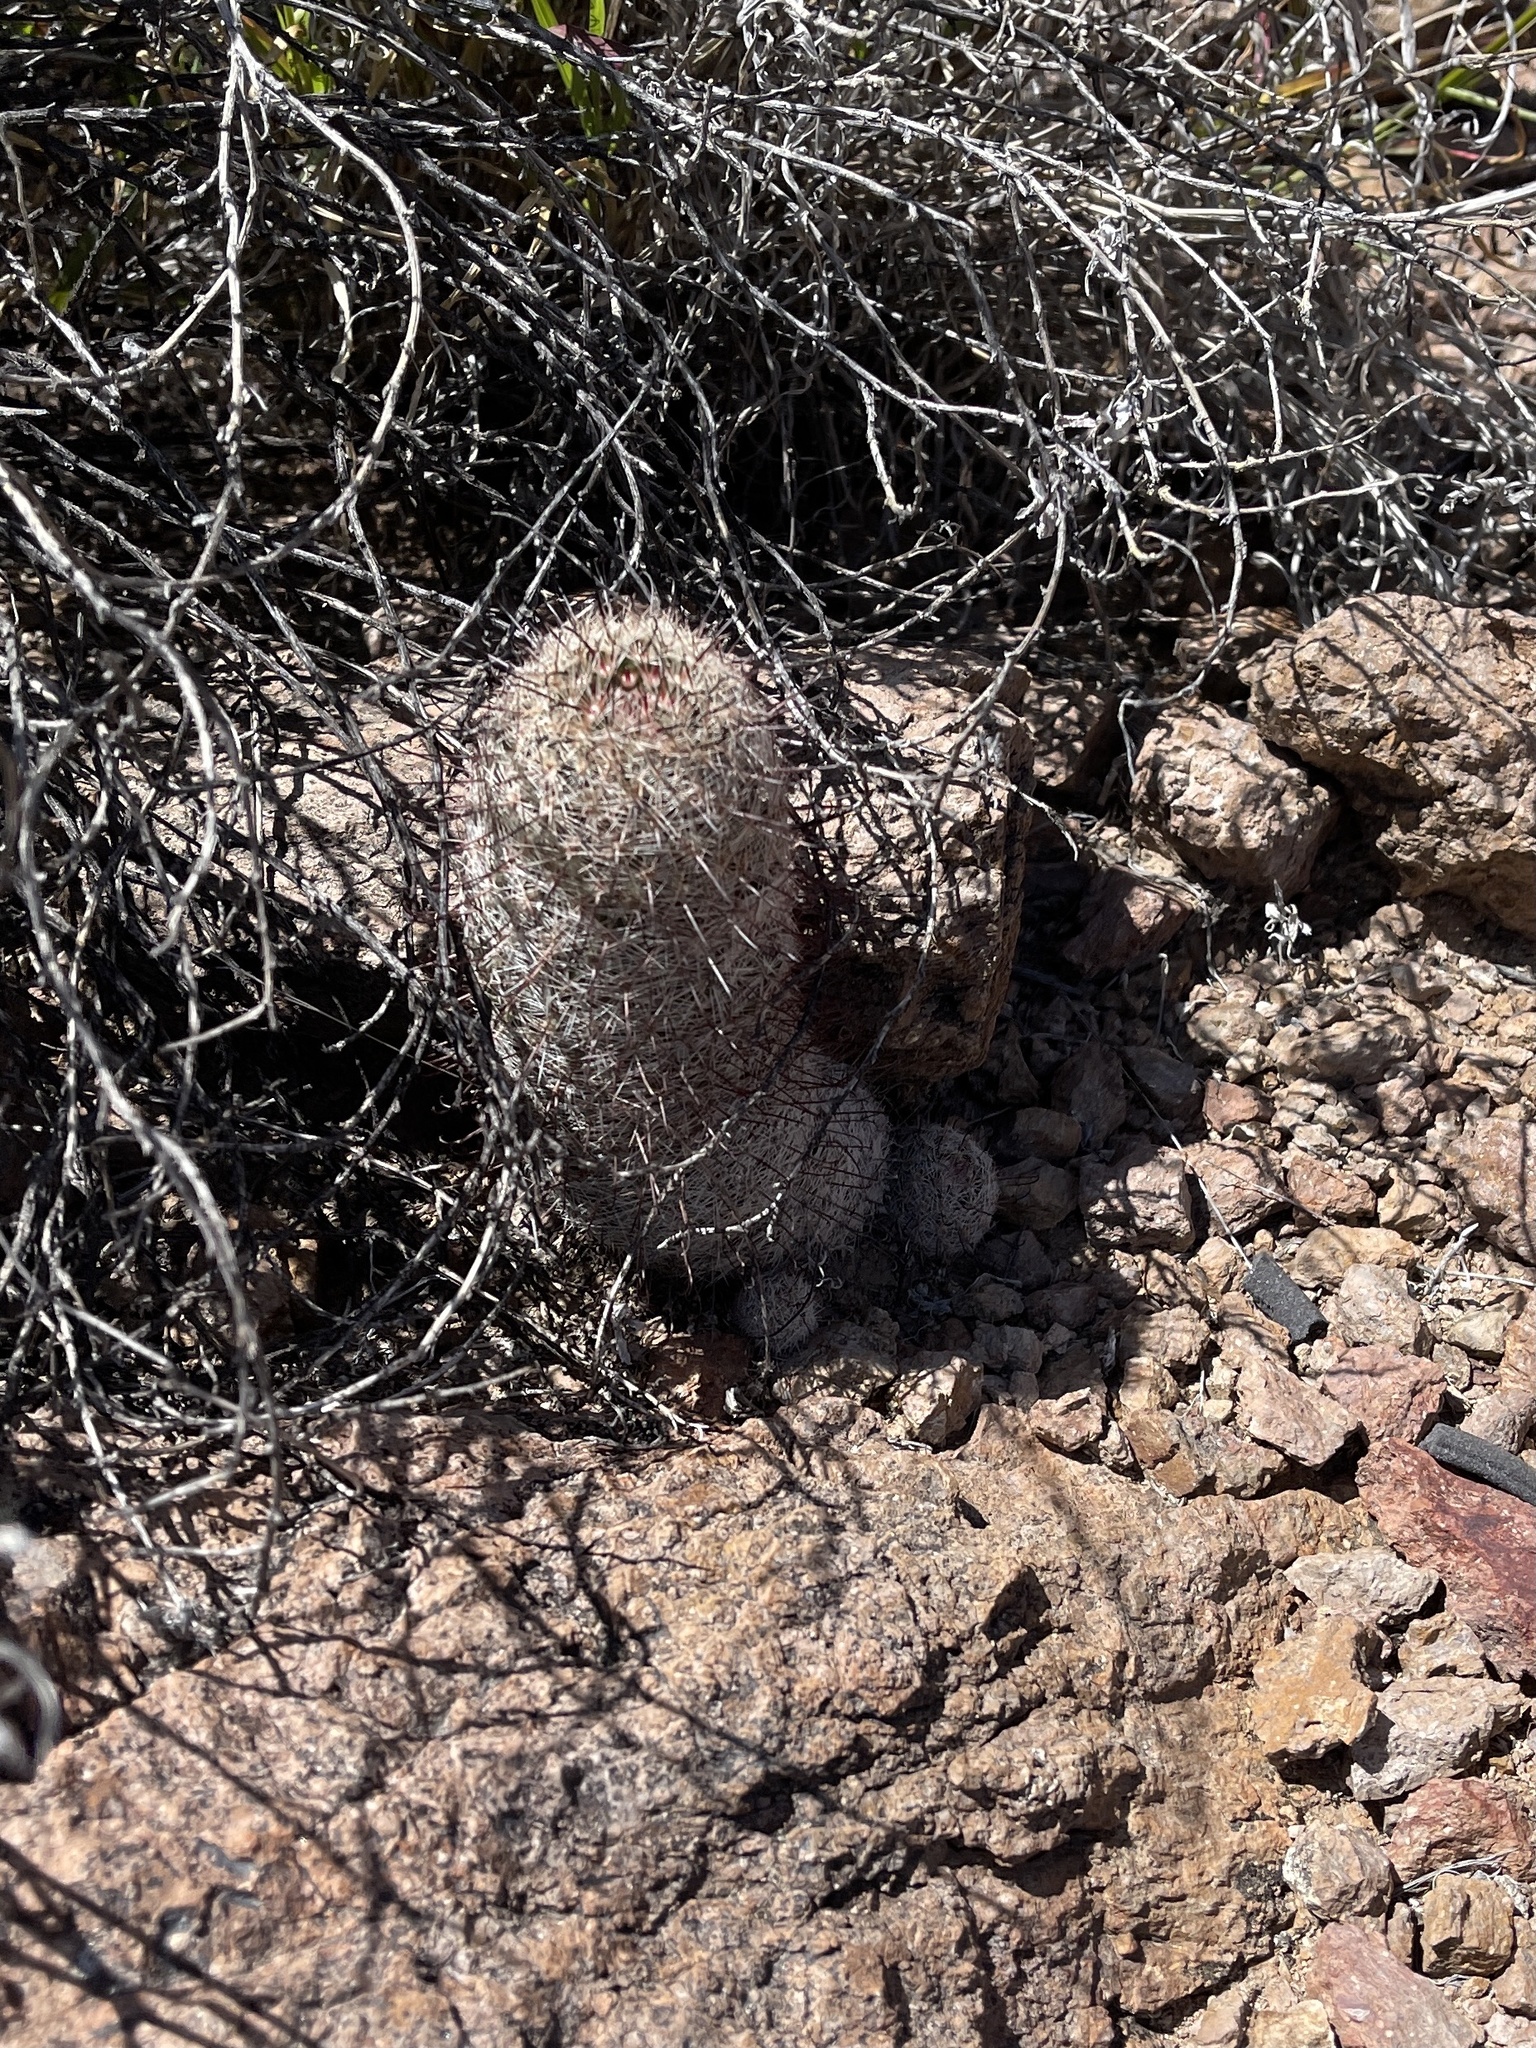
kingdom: Plantae
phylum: Tracheophyta
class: Magnoliopsida
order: Caryophyllales
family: Cactaceae
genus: Cochemiea
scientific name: Cochemiea grahamii
